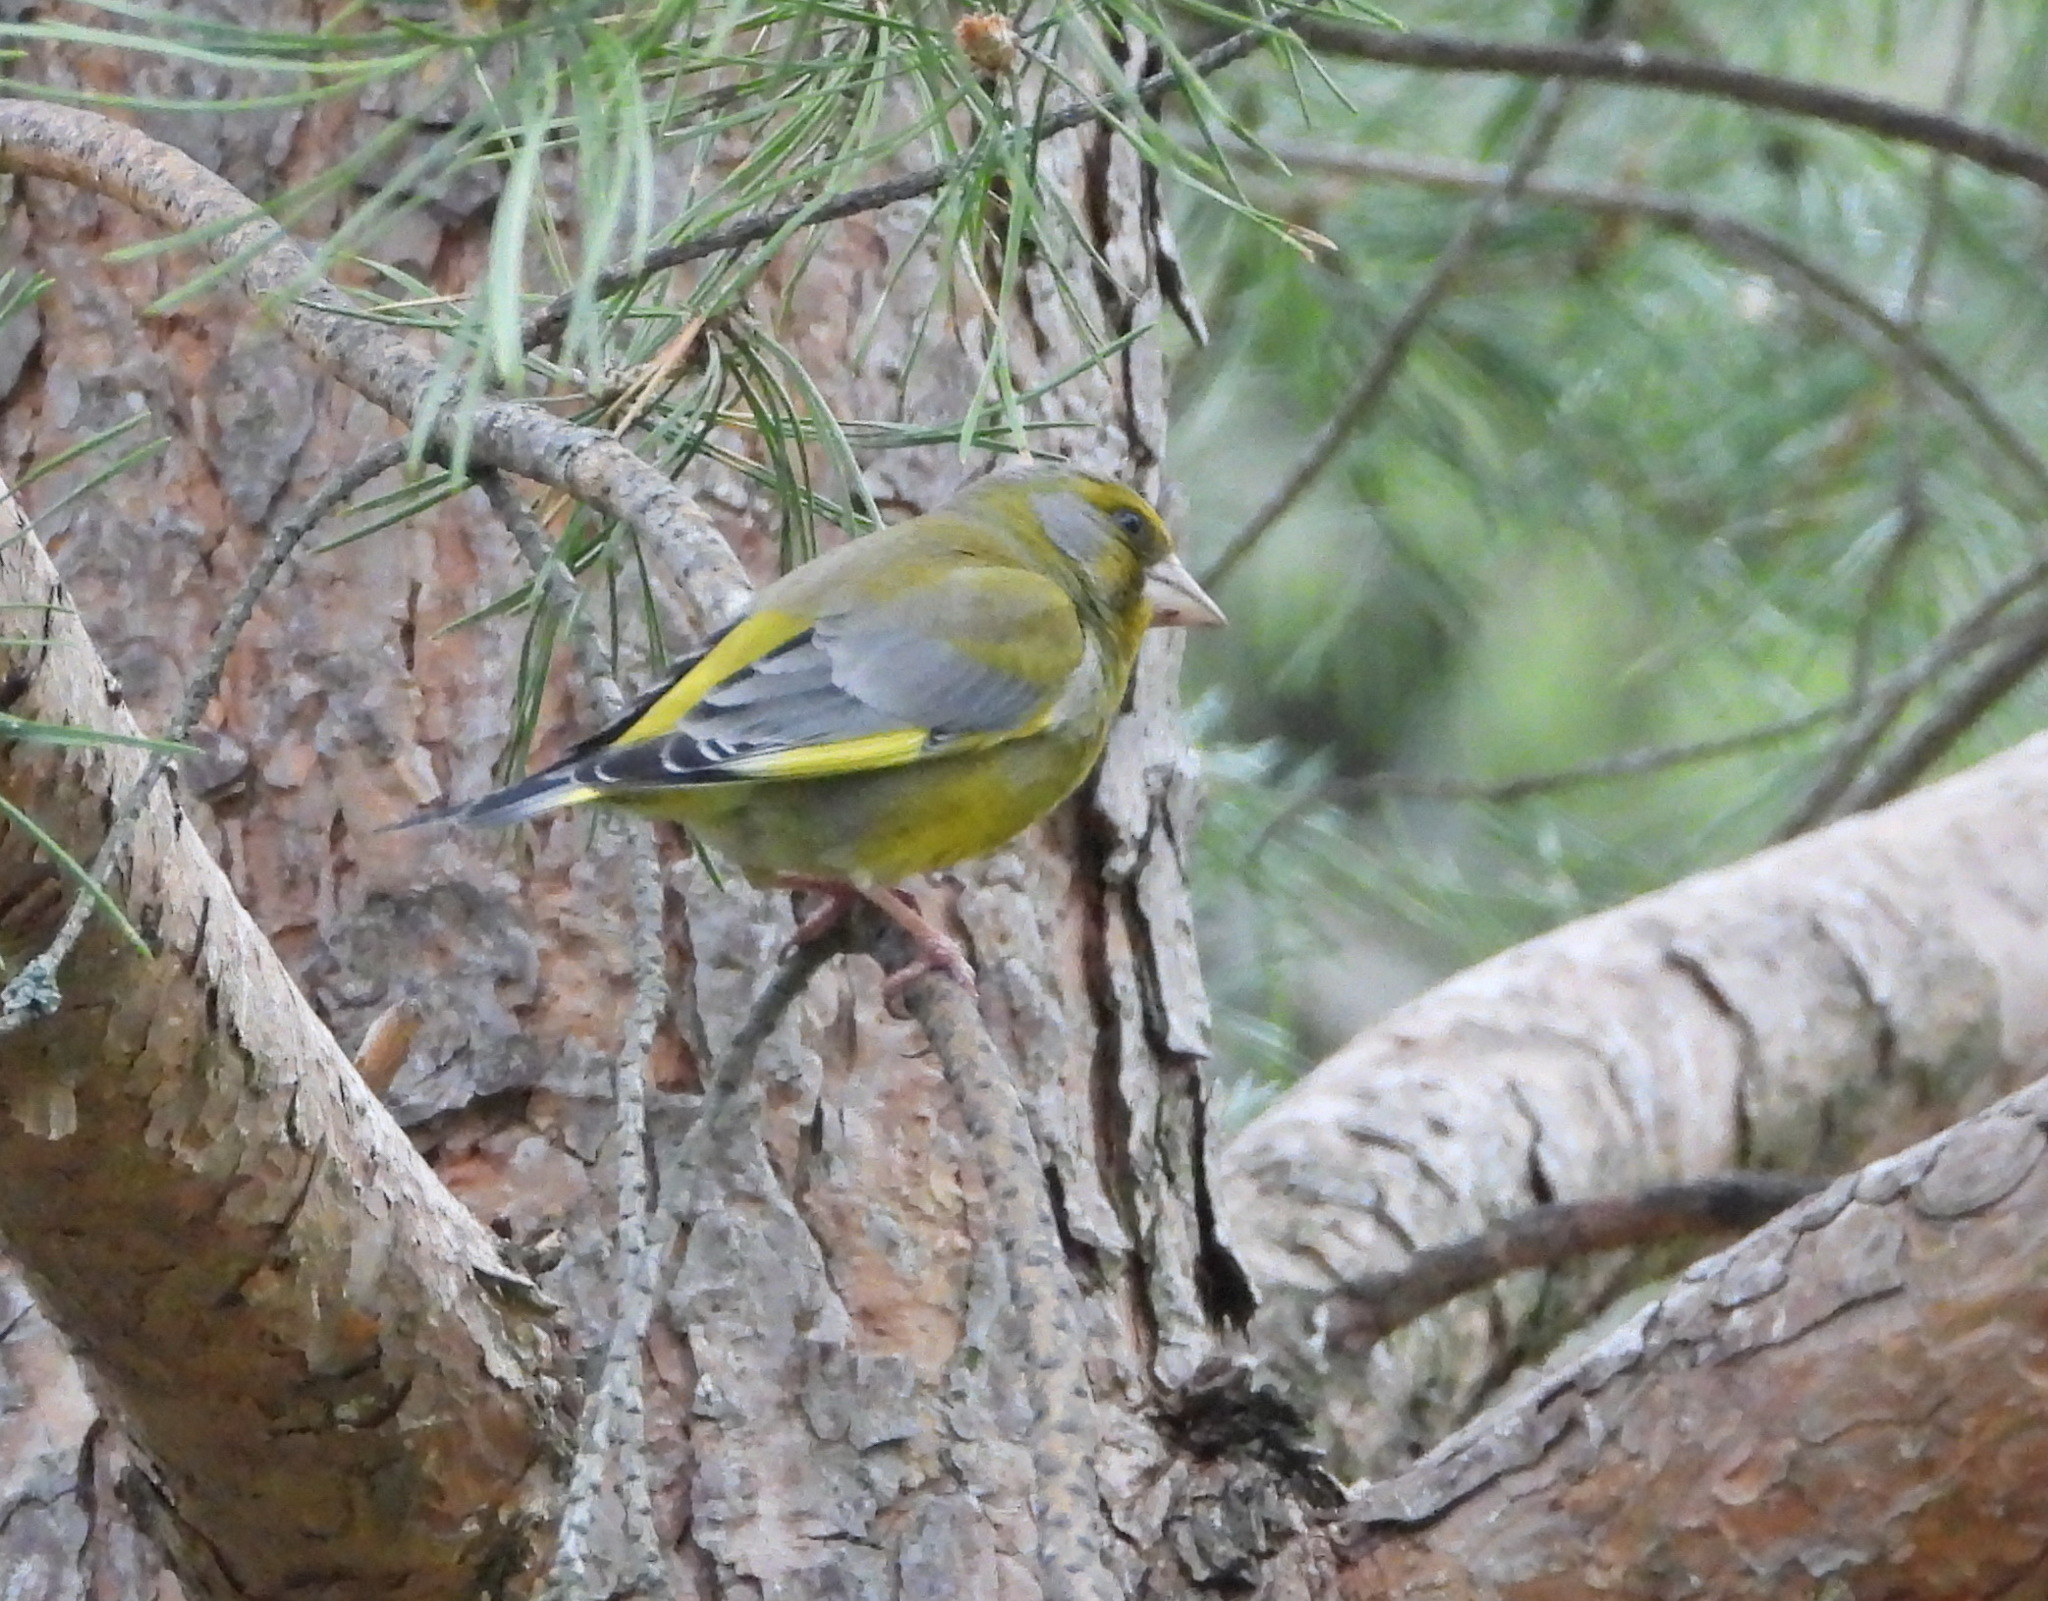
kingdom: Plantae
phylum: Tracheophyta
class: Liliopsida
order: Poales
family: Poaceae
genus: Chloris
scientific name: Chloris chloris
